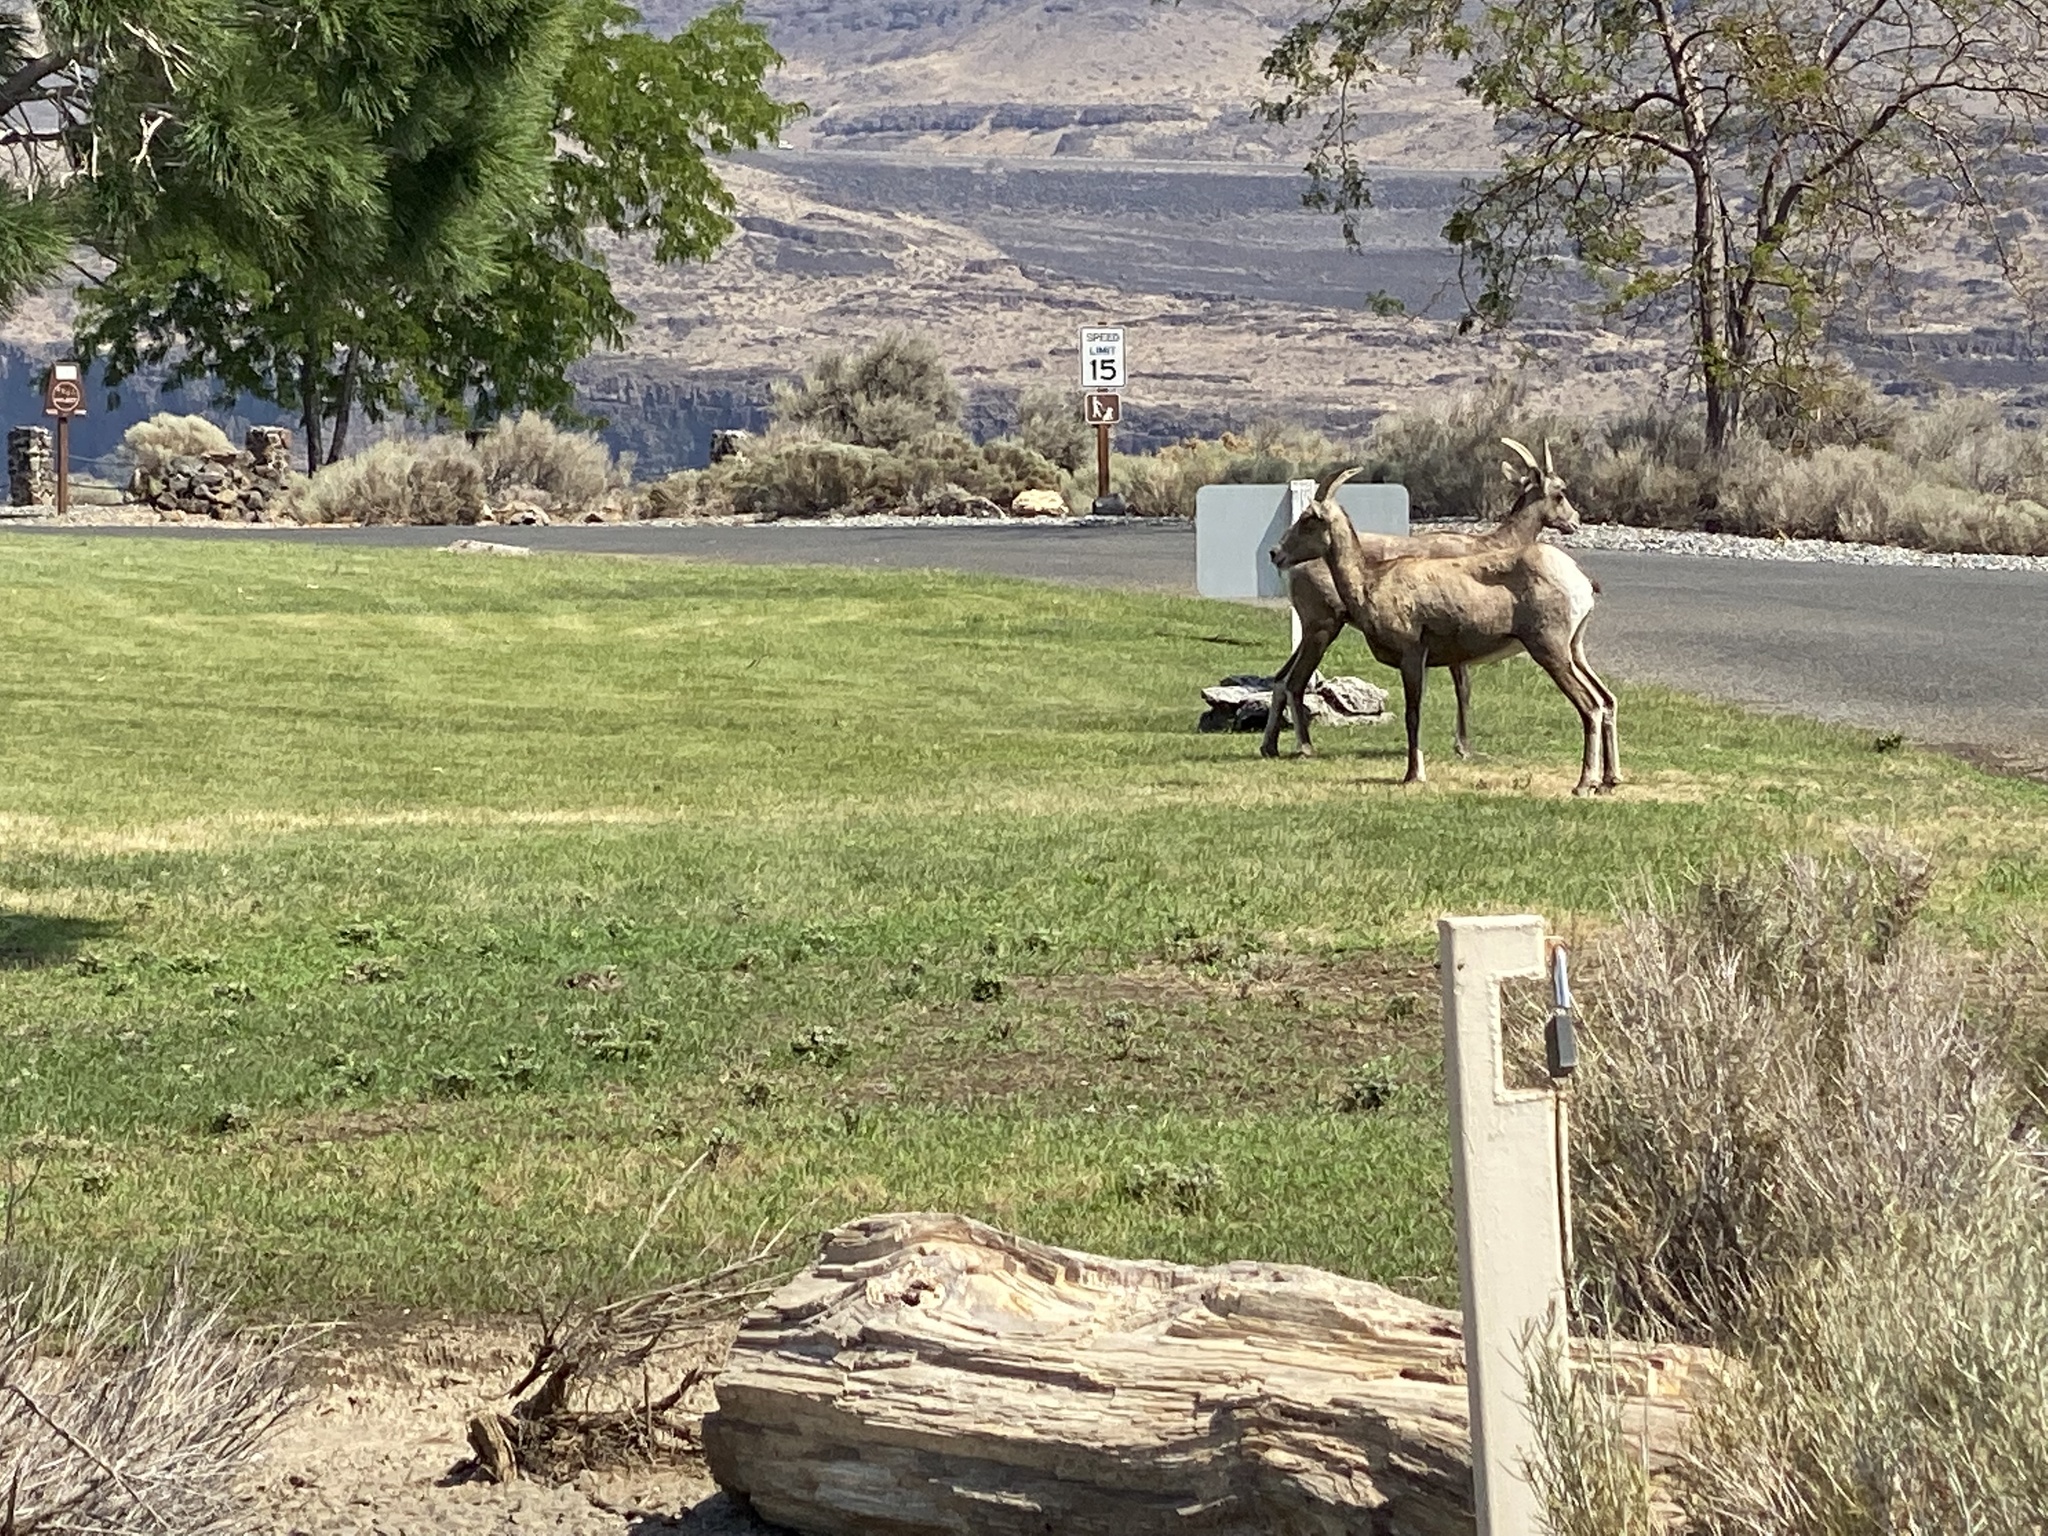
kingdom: Animalia
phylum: Chordata
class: Mammalia
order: Artiodactyla
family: Bovidae
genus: Ovis
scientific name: Ovis canadensis
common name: Bighorn sheep
